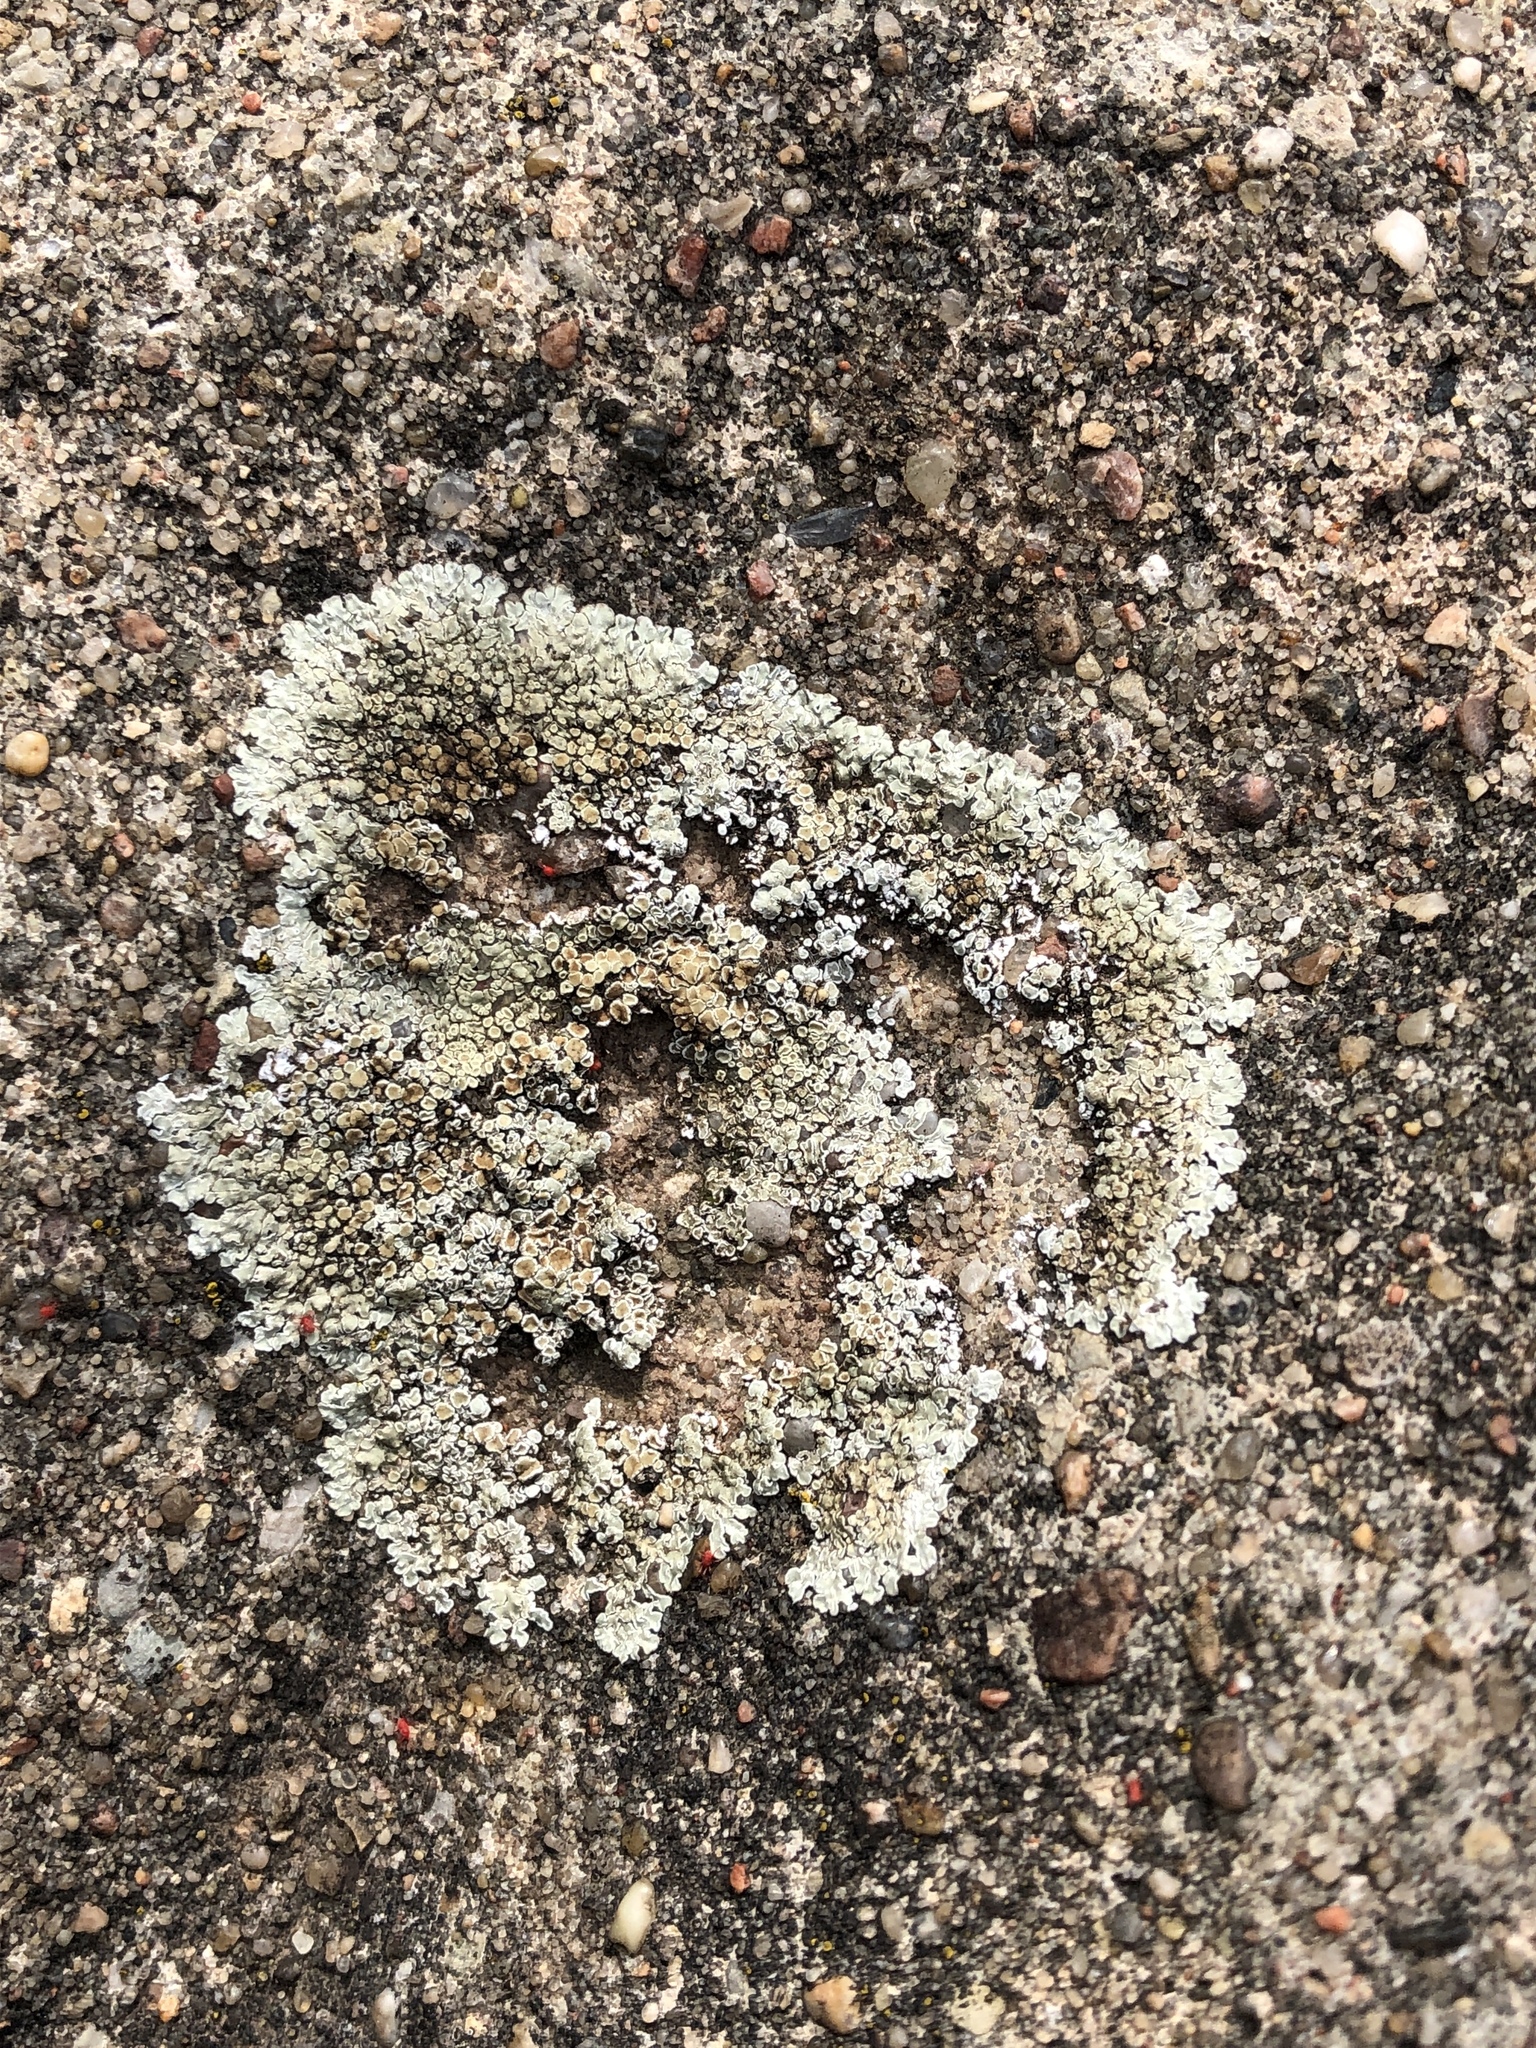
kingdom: Fungi
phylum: Ascomycota
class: Lecanoromycetes
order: Lecanorales
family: Lecanoraceae
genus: Protoparmeliopsis
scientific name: Protoparmeliopsis muralis
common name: Stonewall rim lichen
